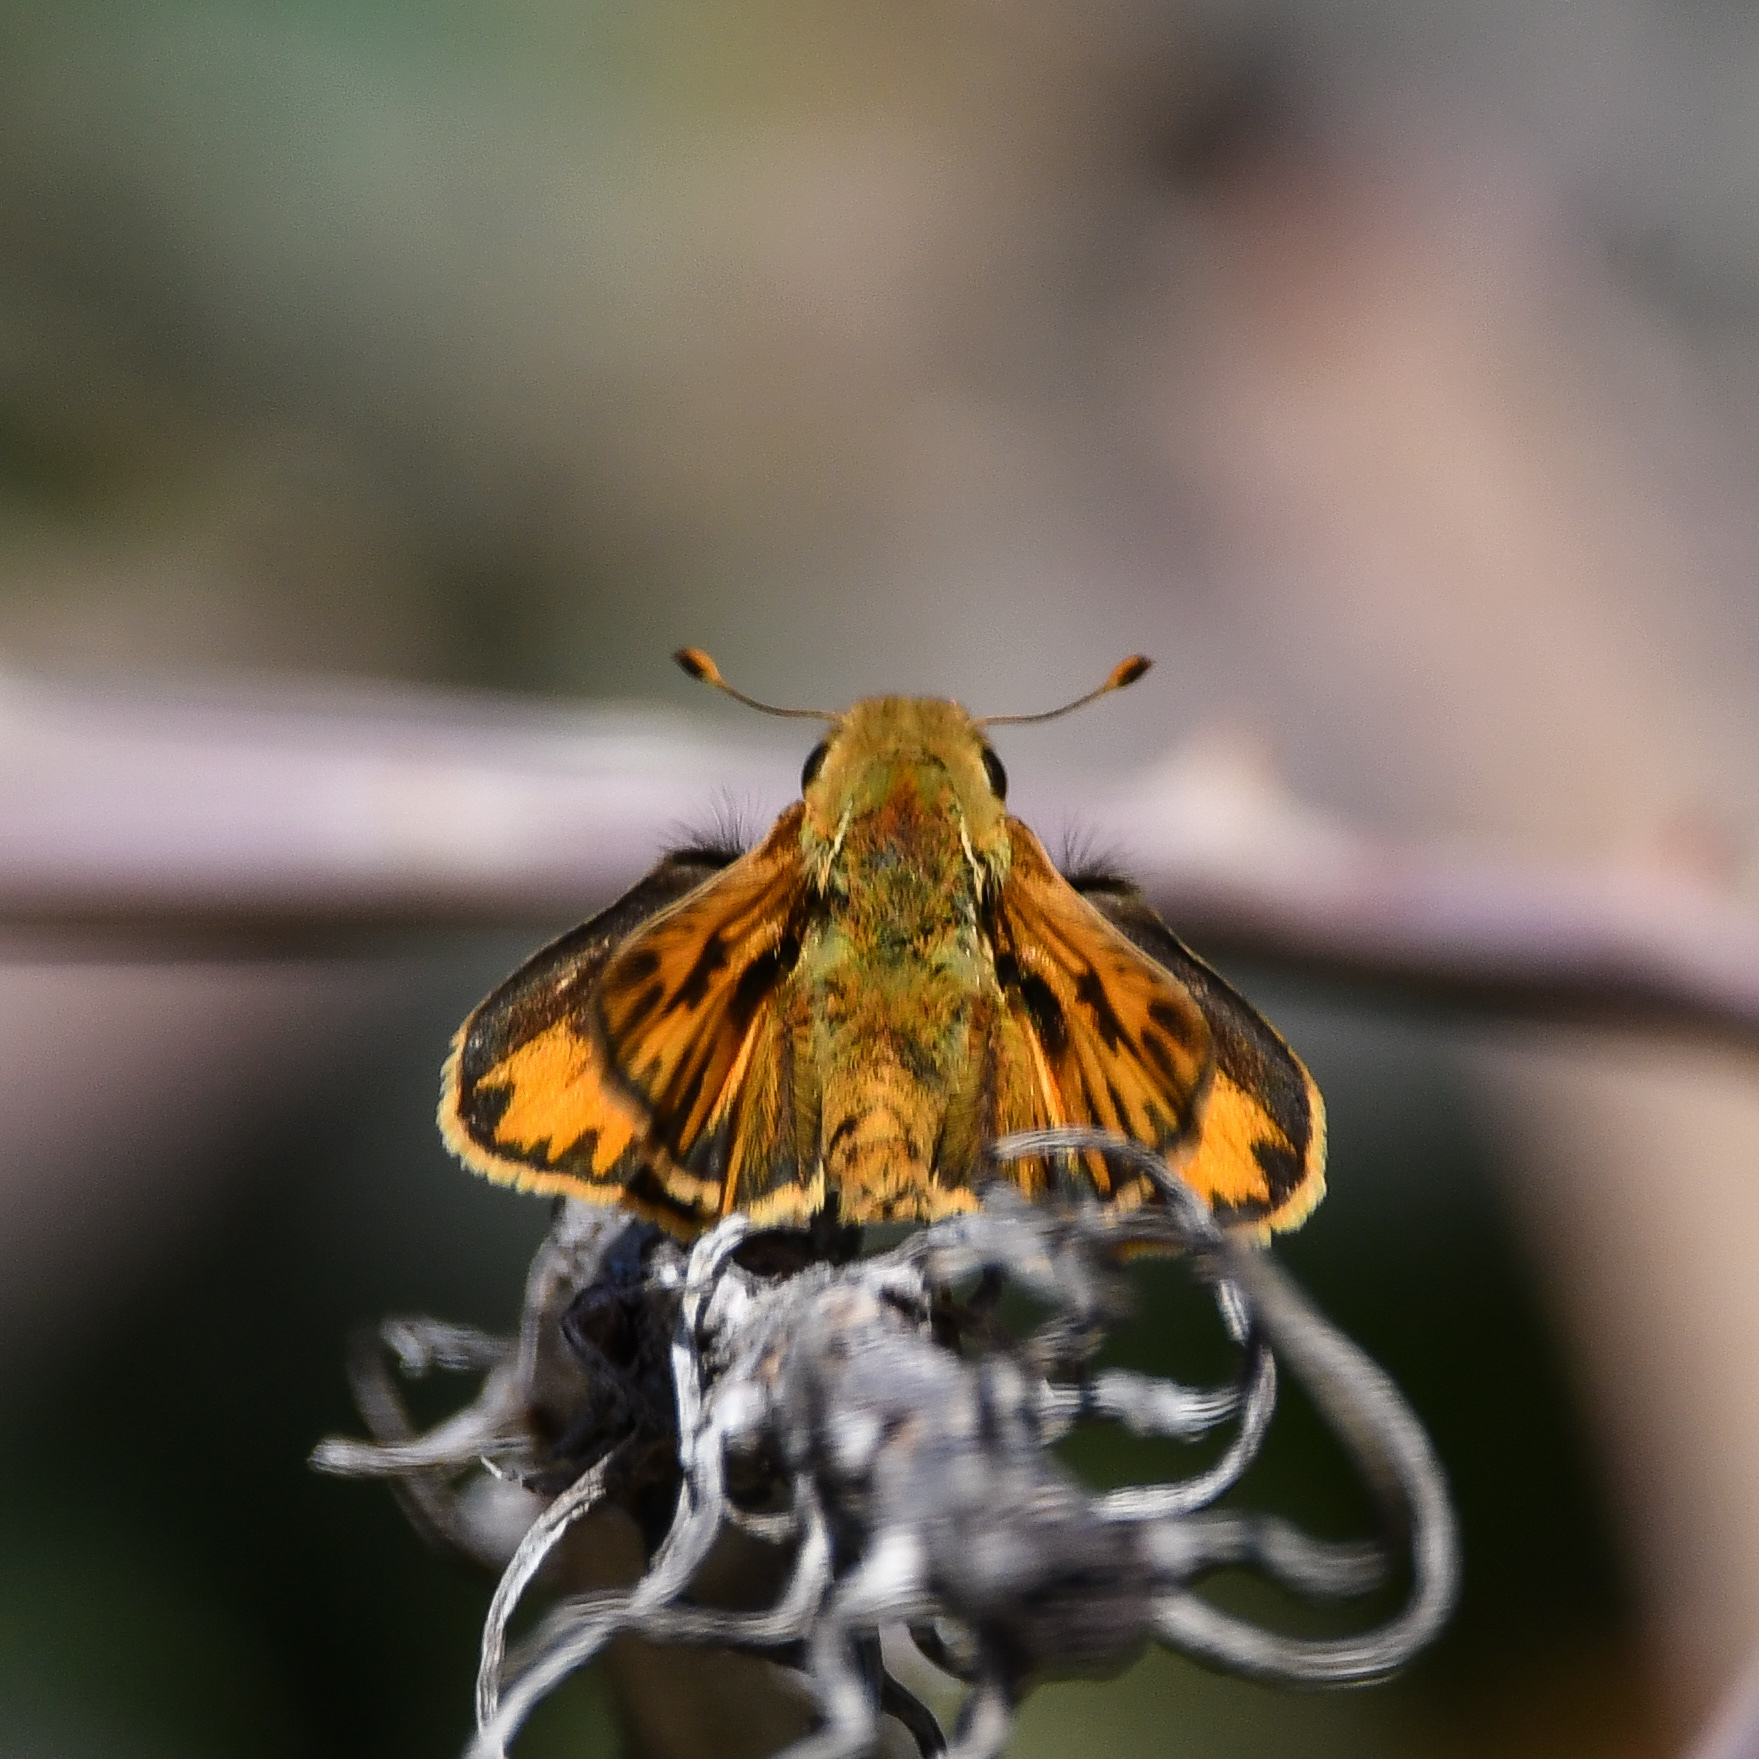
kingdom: Animalia
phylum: Arthropoda
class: Insecta
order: Lepidoptera
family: Hesperiidae
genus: Hylephila
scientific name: Hylephila phyleus
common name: Fiery skipper
